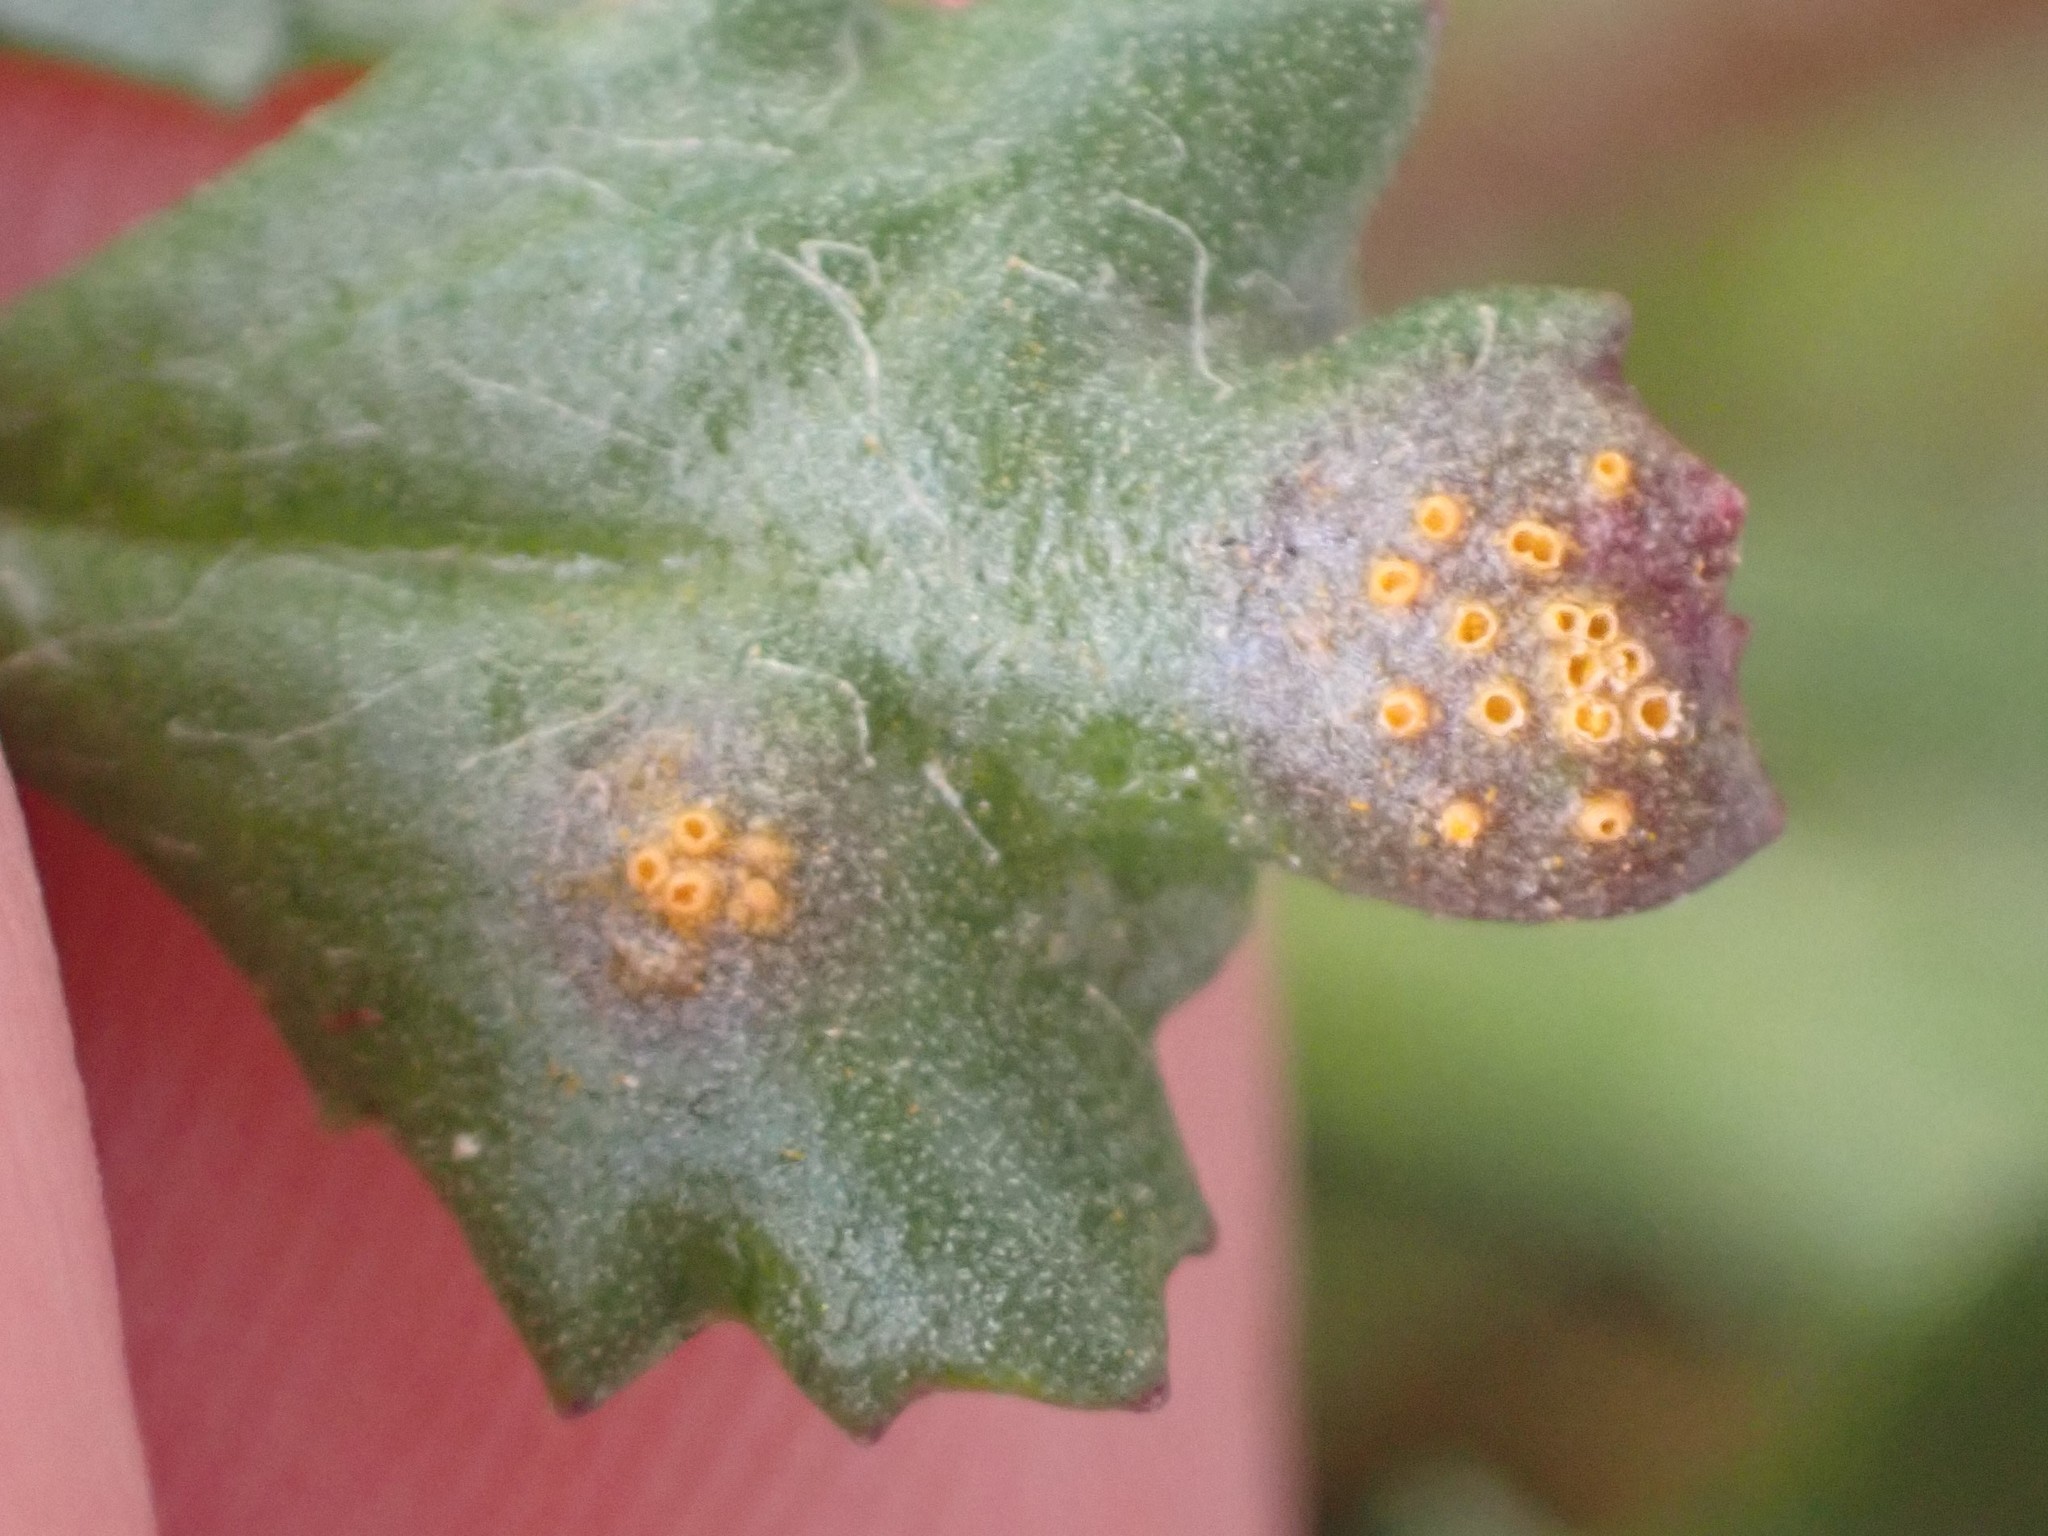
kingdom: Fungi
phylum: Basidiomycota
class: Pucciniomycetes
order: Pucciniales
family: Pucciniaceae
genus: Puccinia
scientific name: Puccinia lagenophorae
